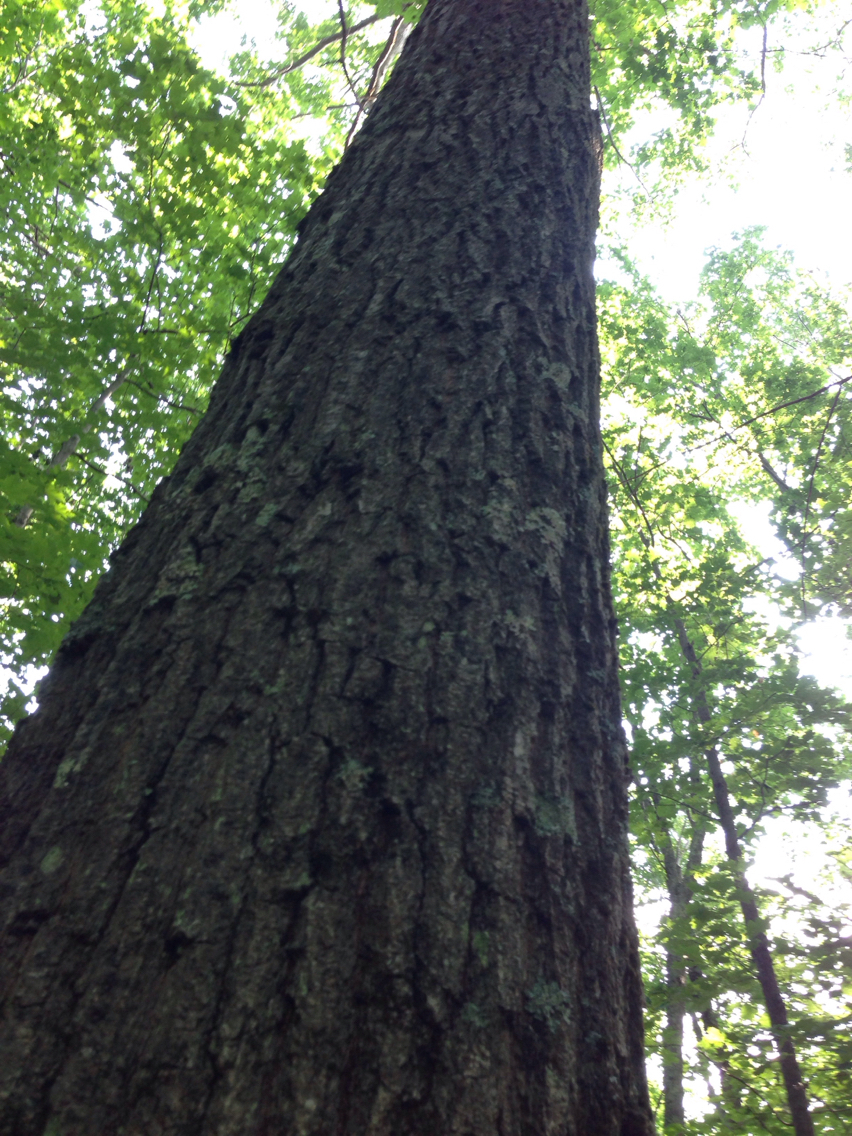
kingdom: Plantae
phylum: Tracheophyta
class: Magnoliopsida
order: Fagales
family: Fagaceae
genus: Quercus
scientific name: Quercus rubra
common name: Red oak
